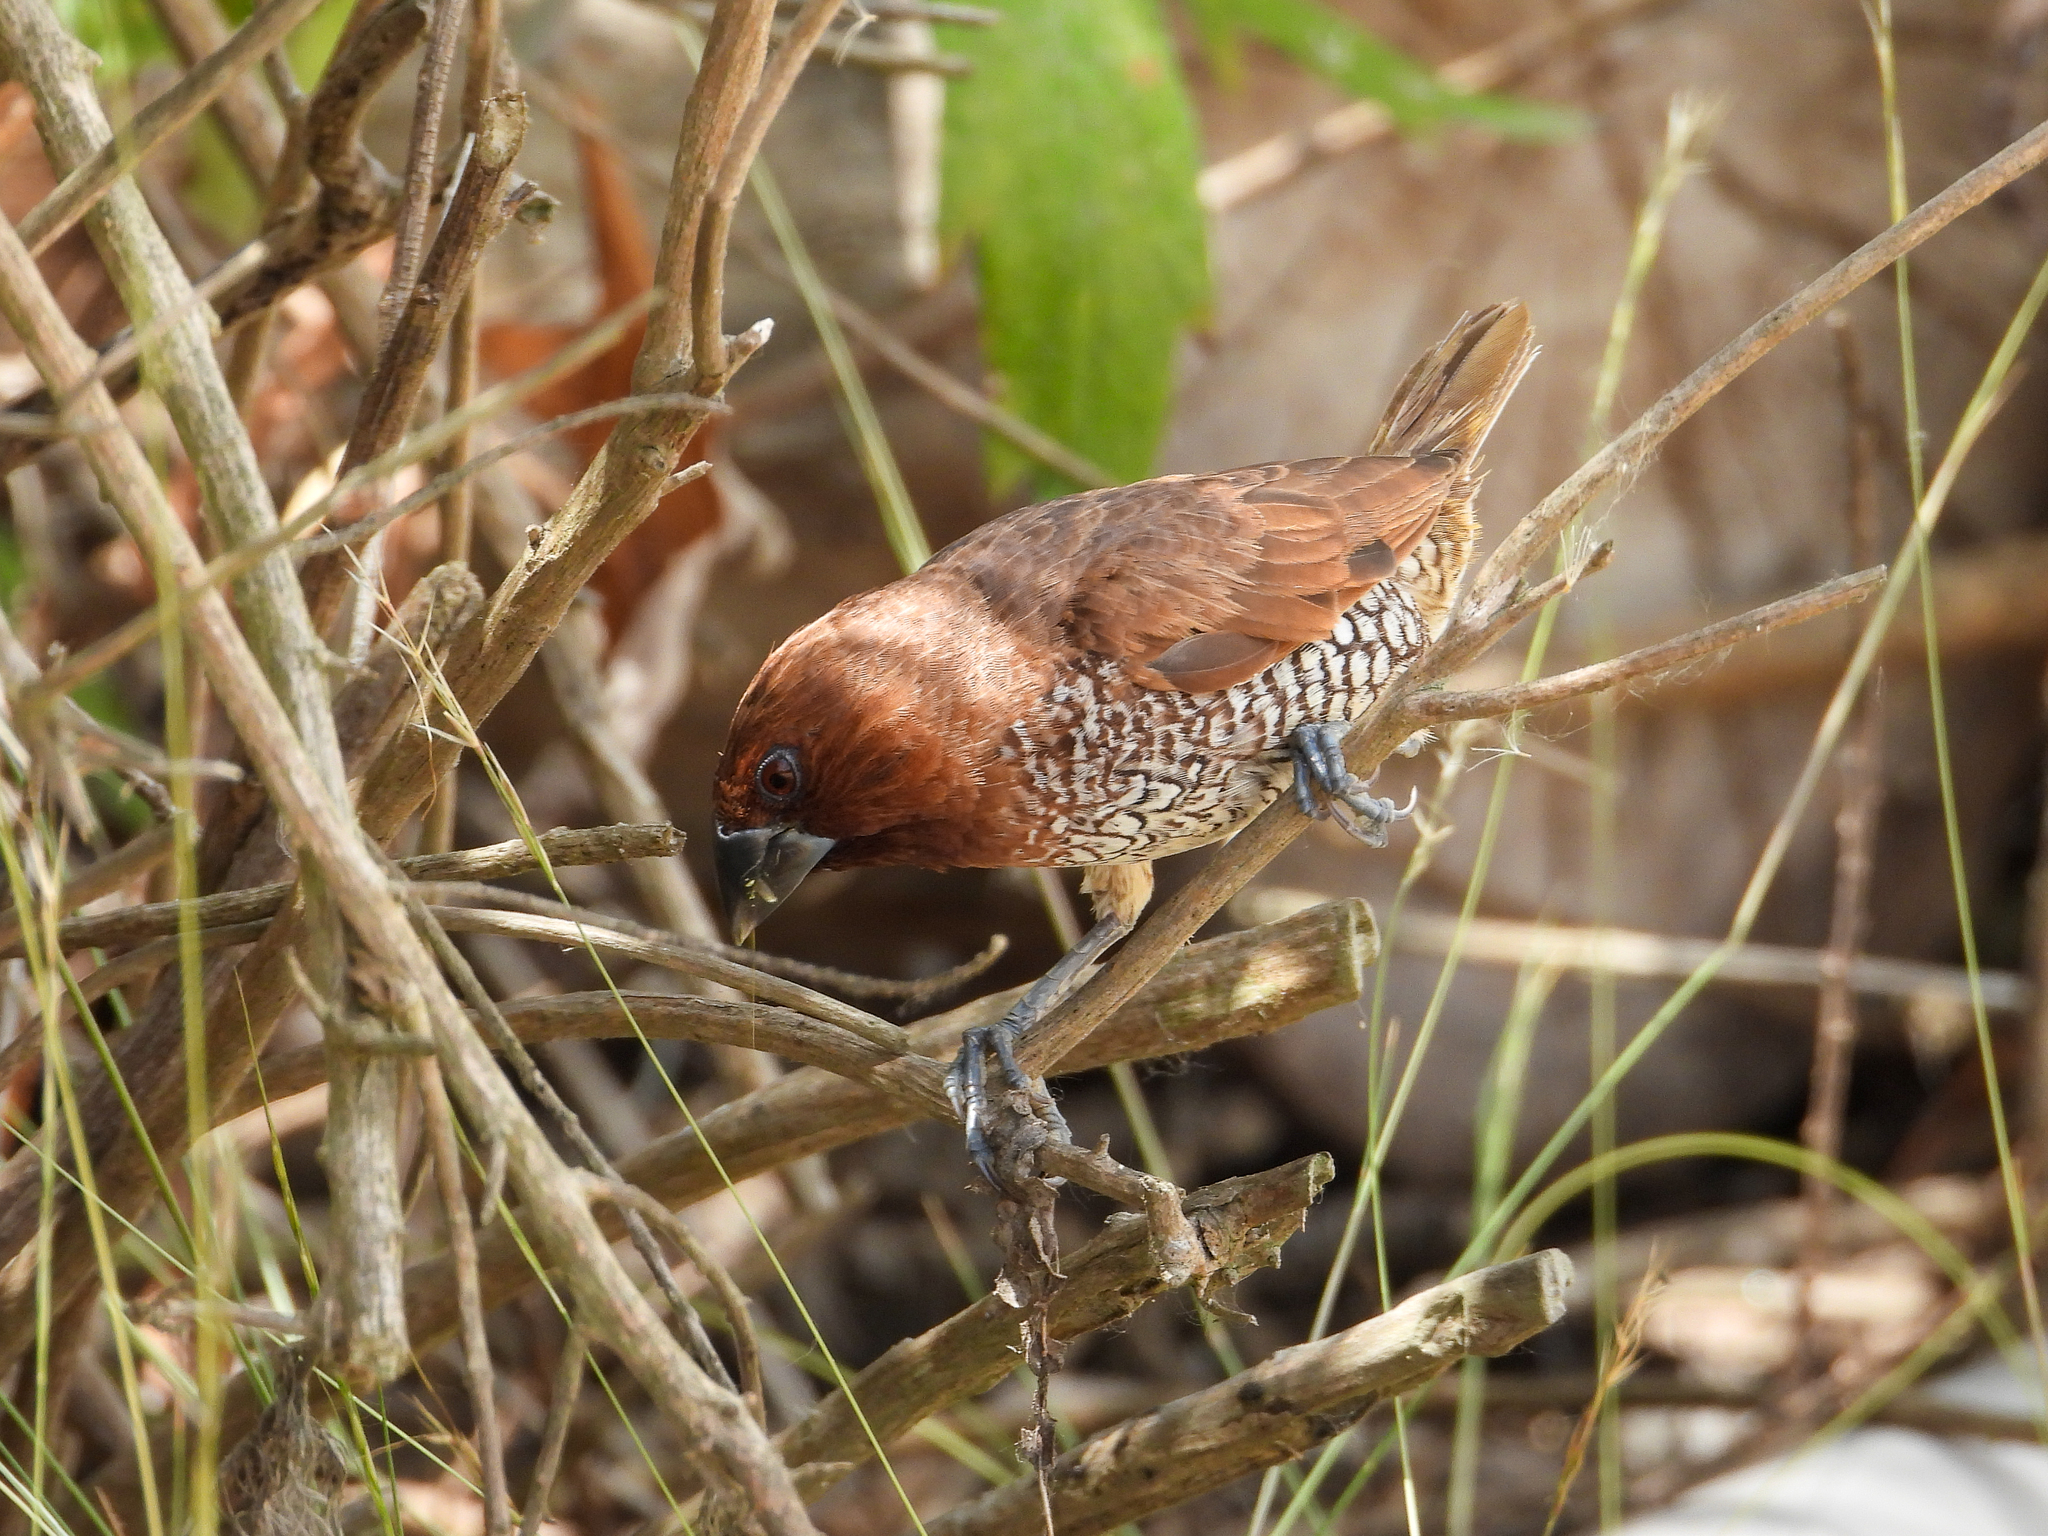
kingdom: Animalia
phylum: Chordata
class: Aves
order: Passeriformes
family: Estrildidae
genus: Lonchura
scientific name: Lonchura punctulata
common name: Scaly-breasted munia
